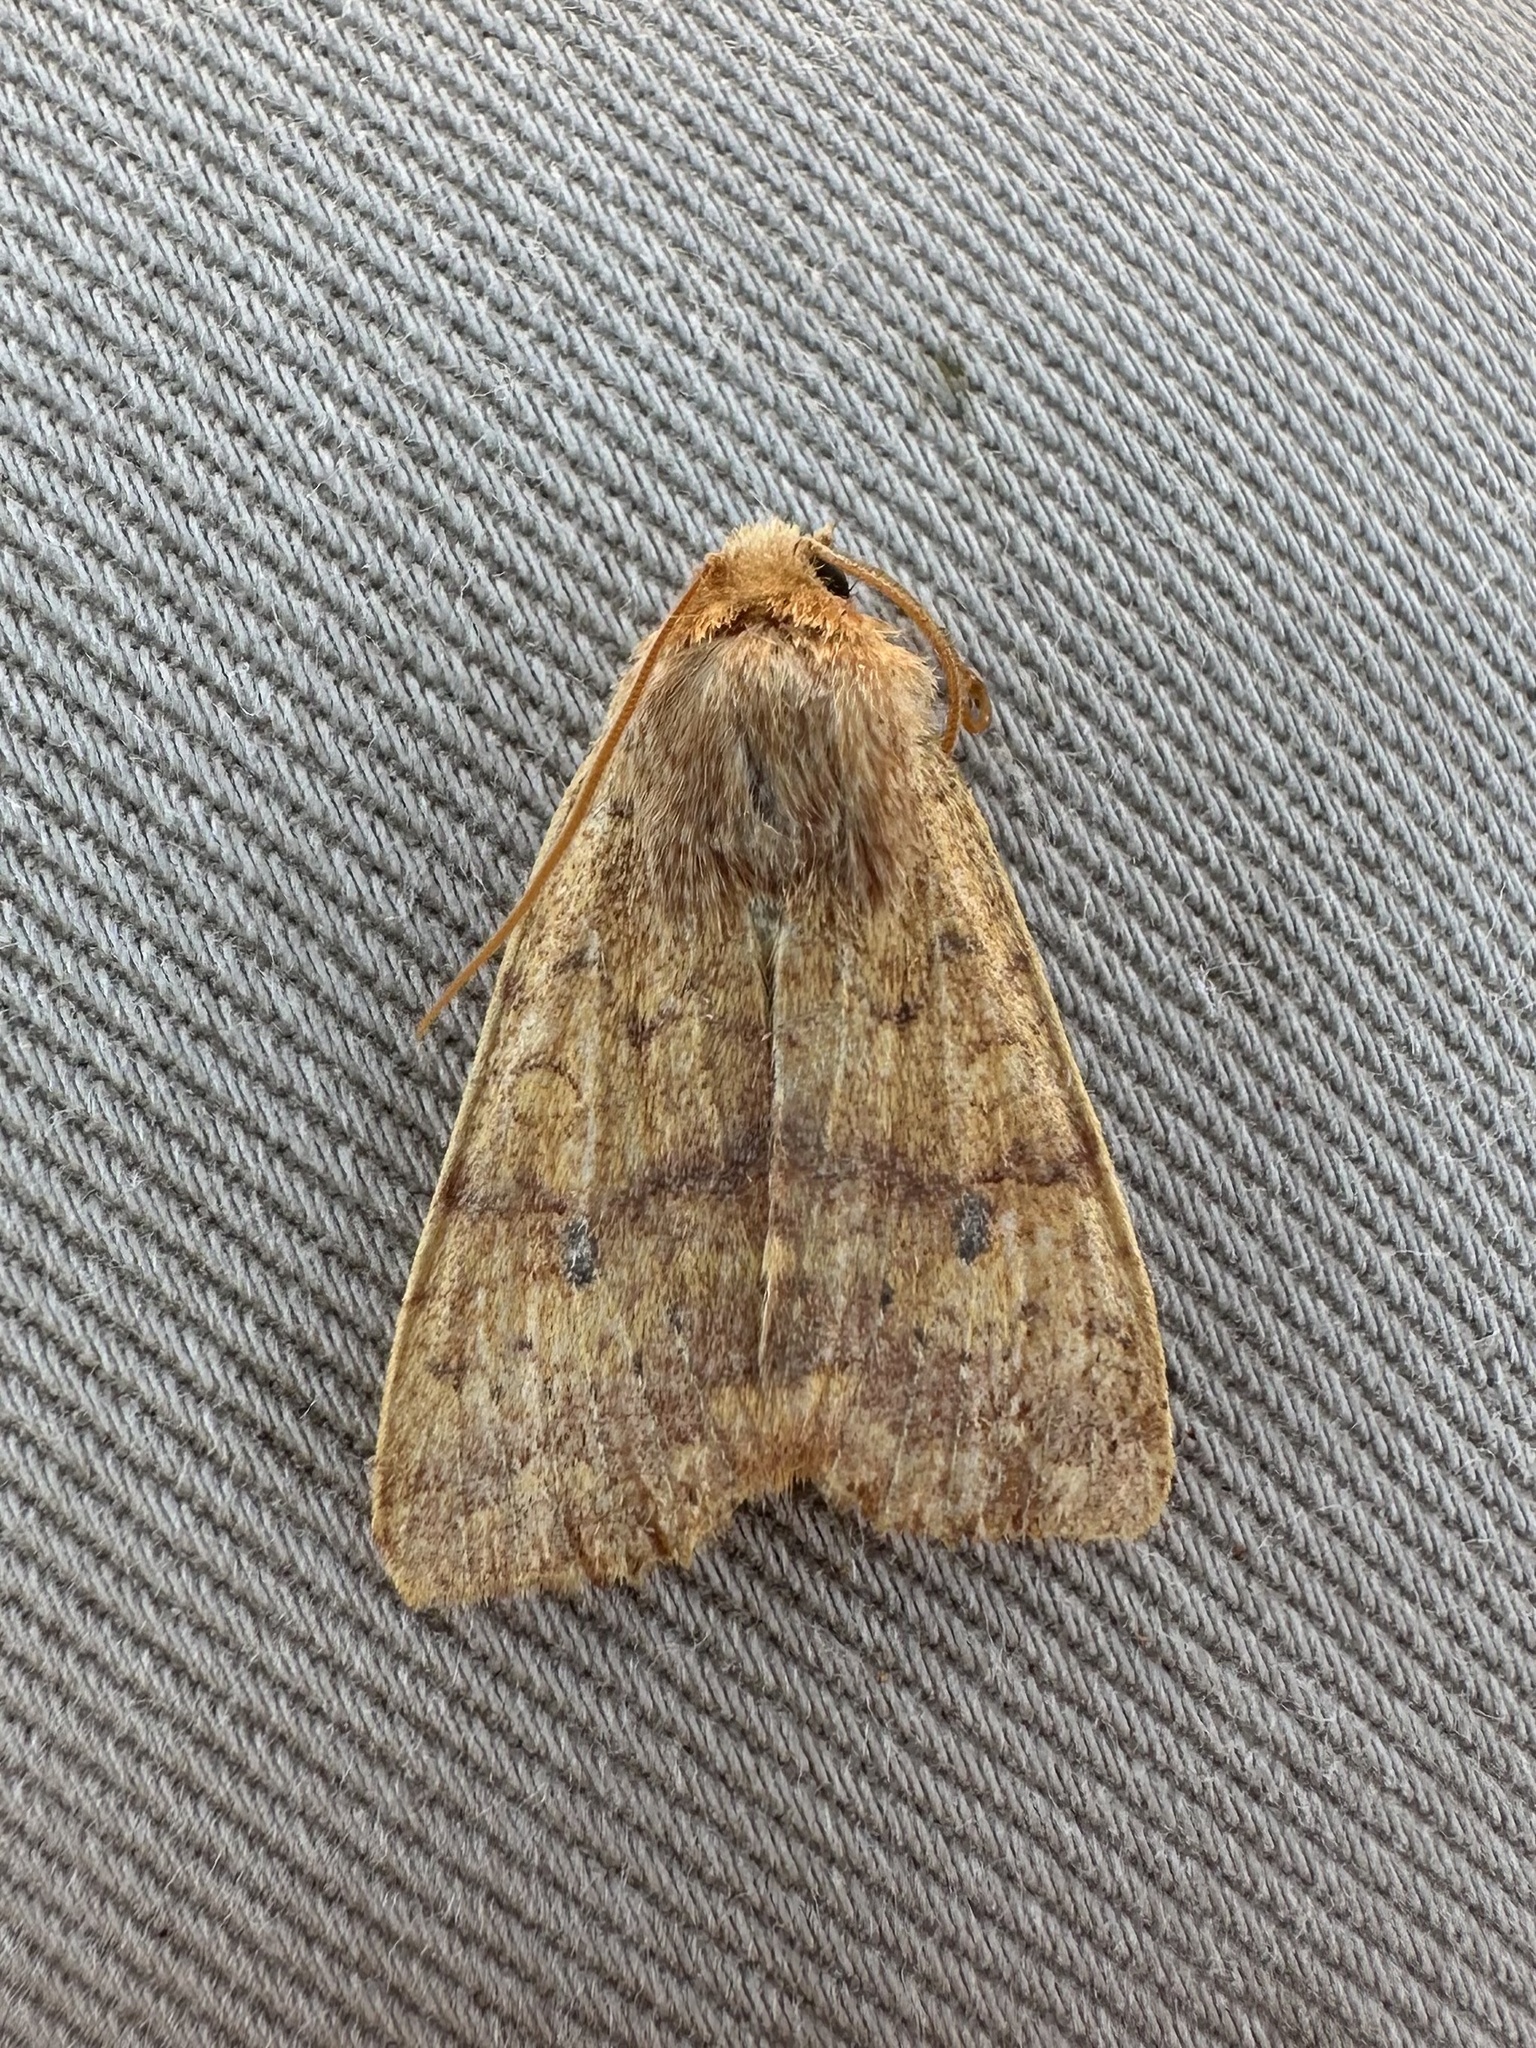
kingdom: Animalia
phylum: Arthropoda
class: Insecta
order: Lepidoptera
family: Noctuidae
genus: Agrochola
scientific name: Agrochola bicolorago
